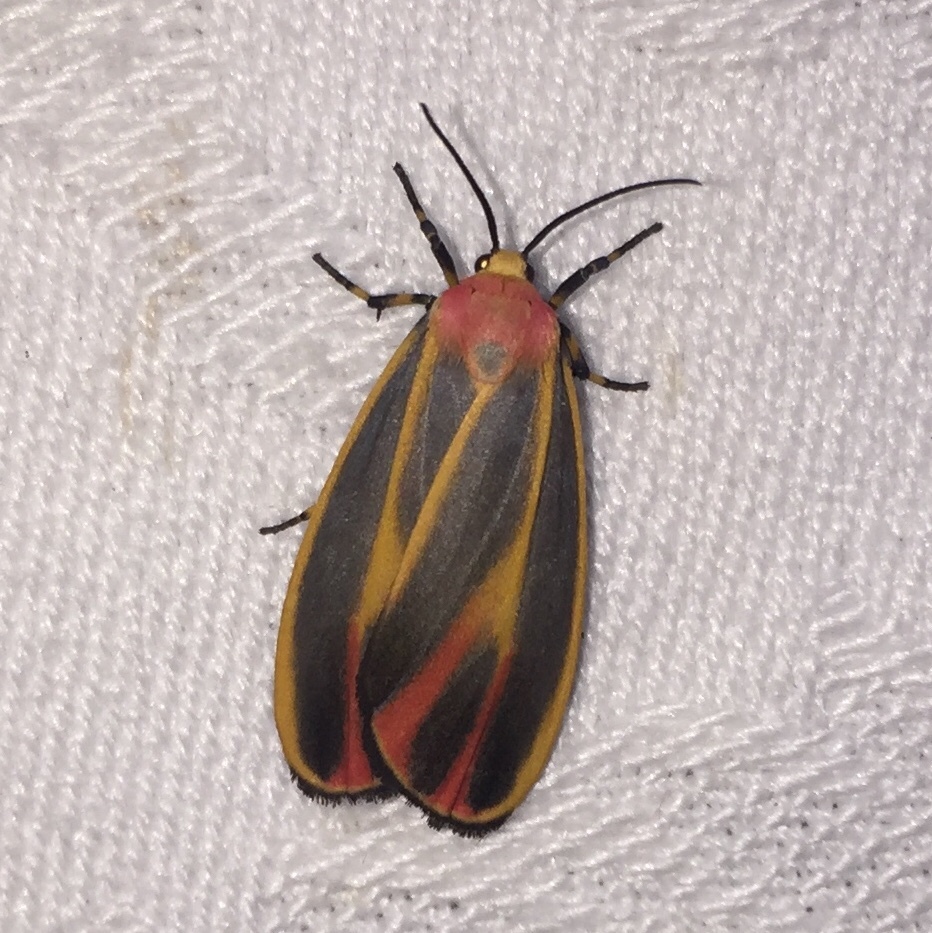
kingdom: Animalia
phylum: Arthropoda
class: Insecta
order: Lepidoptera
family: Erebidae
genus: Hypoprepia
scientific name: Hypoprepia fucosa
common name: Painted lichen moth
